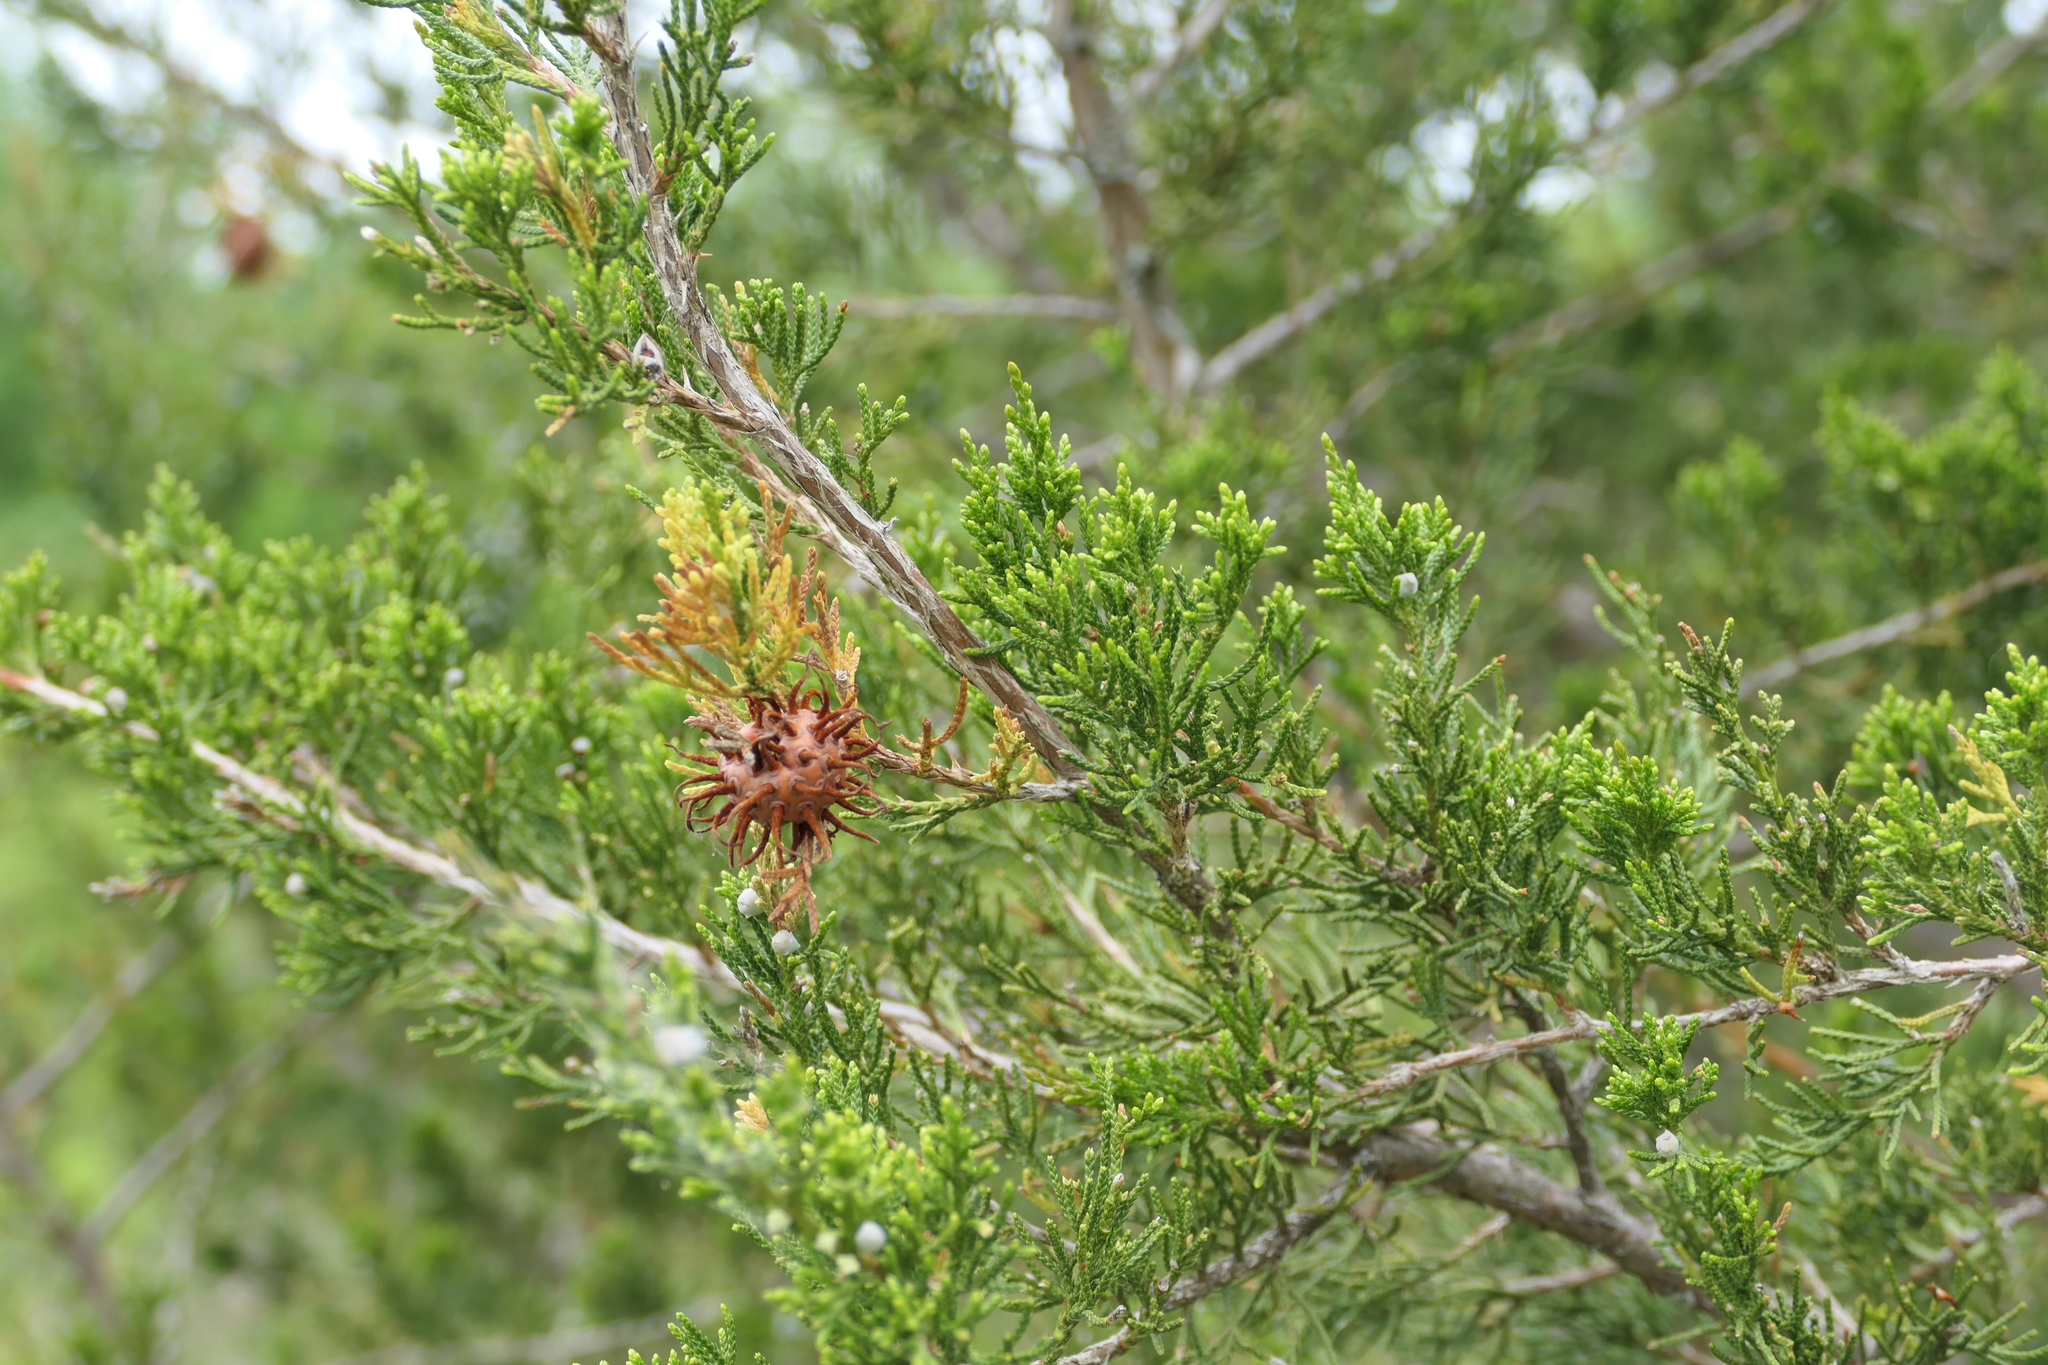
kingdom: Fungi
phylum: Basidiomycota
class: Pucciniomycetes
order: Pucciniales
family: Gymnosporangiaceae
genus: Gymnosporangium
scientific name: Gymnosporangium juniperi-virginianae
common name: Juniper-apple rust
